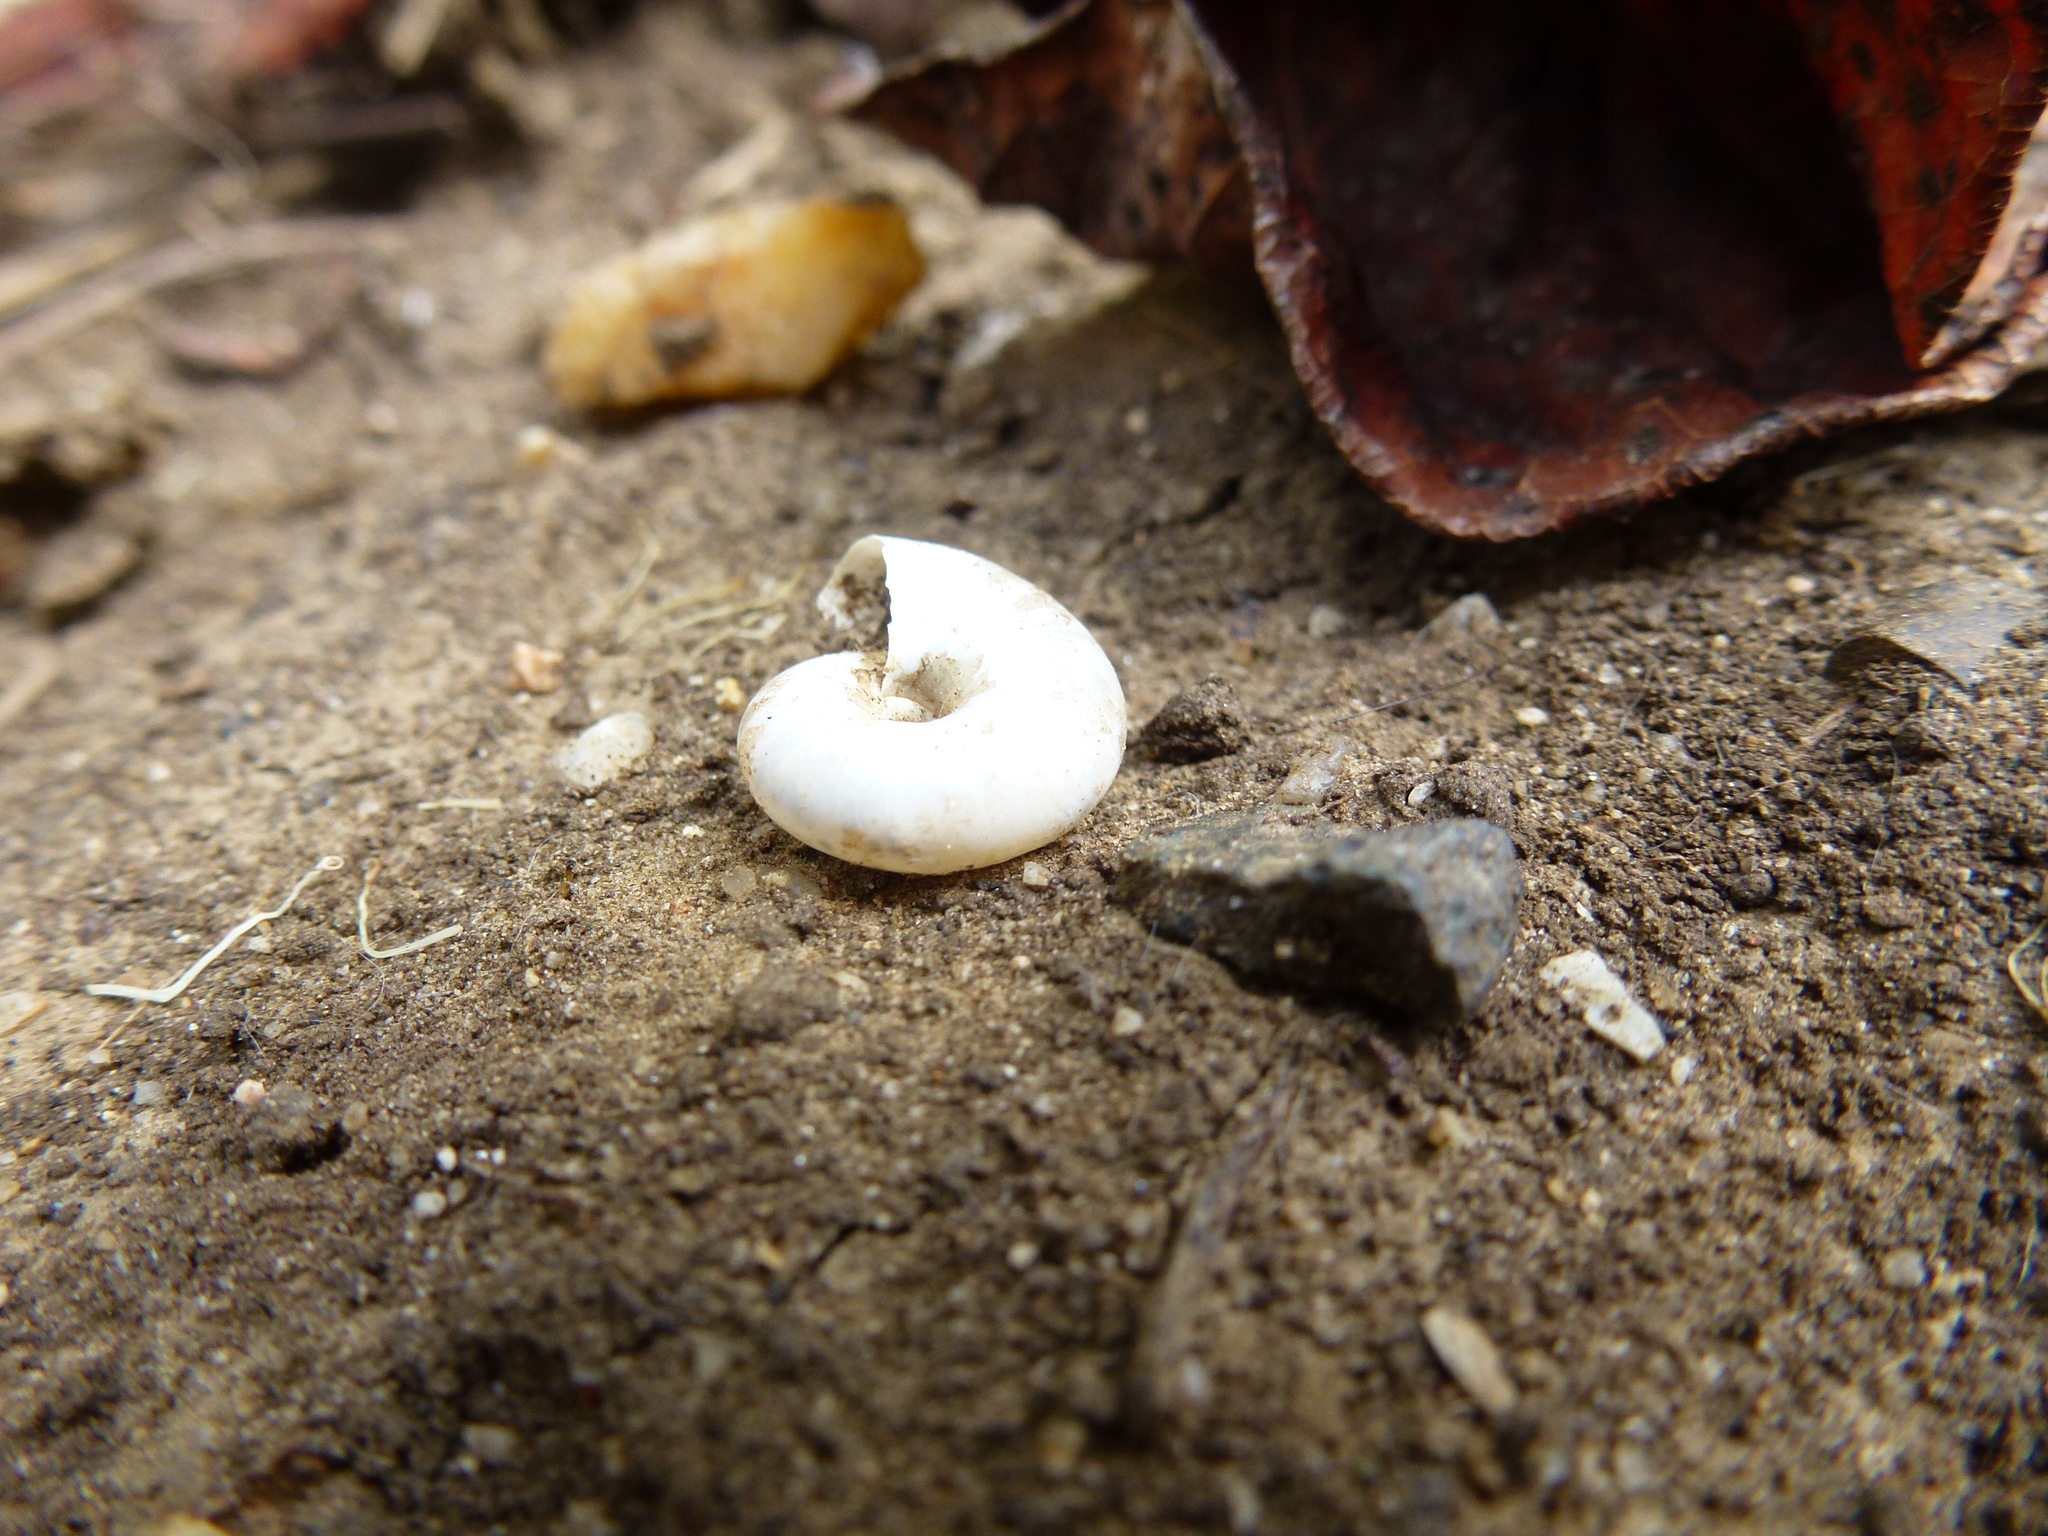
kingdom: Animalia
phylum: Mollusca
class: Gastropoda
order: Stylommatophora
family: Oxychilidae
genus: Oxychilus
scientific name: Oxychilus draparnaudi
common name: Draparnaud's glass snail
